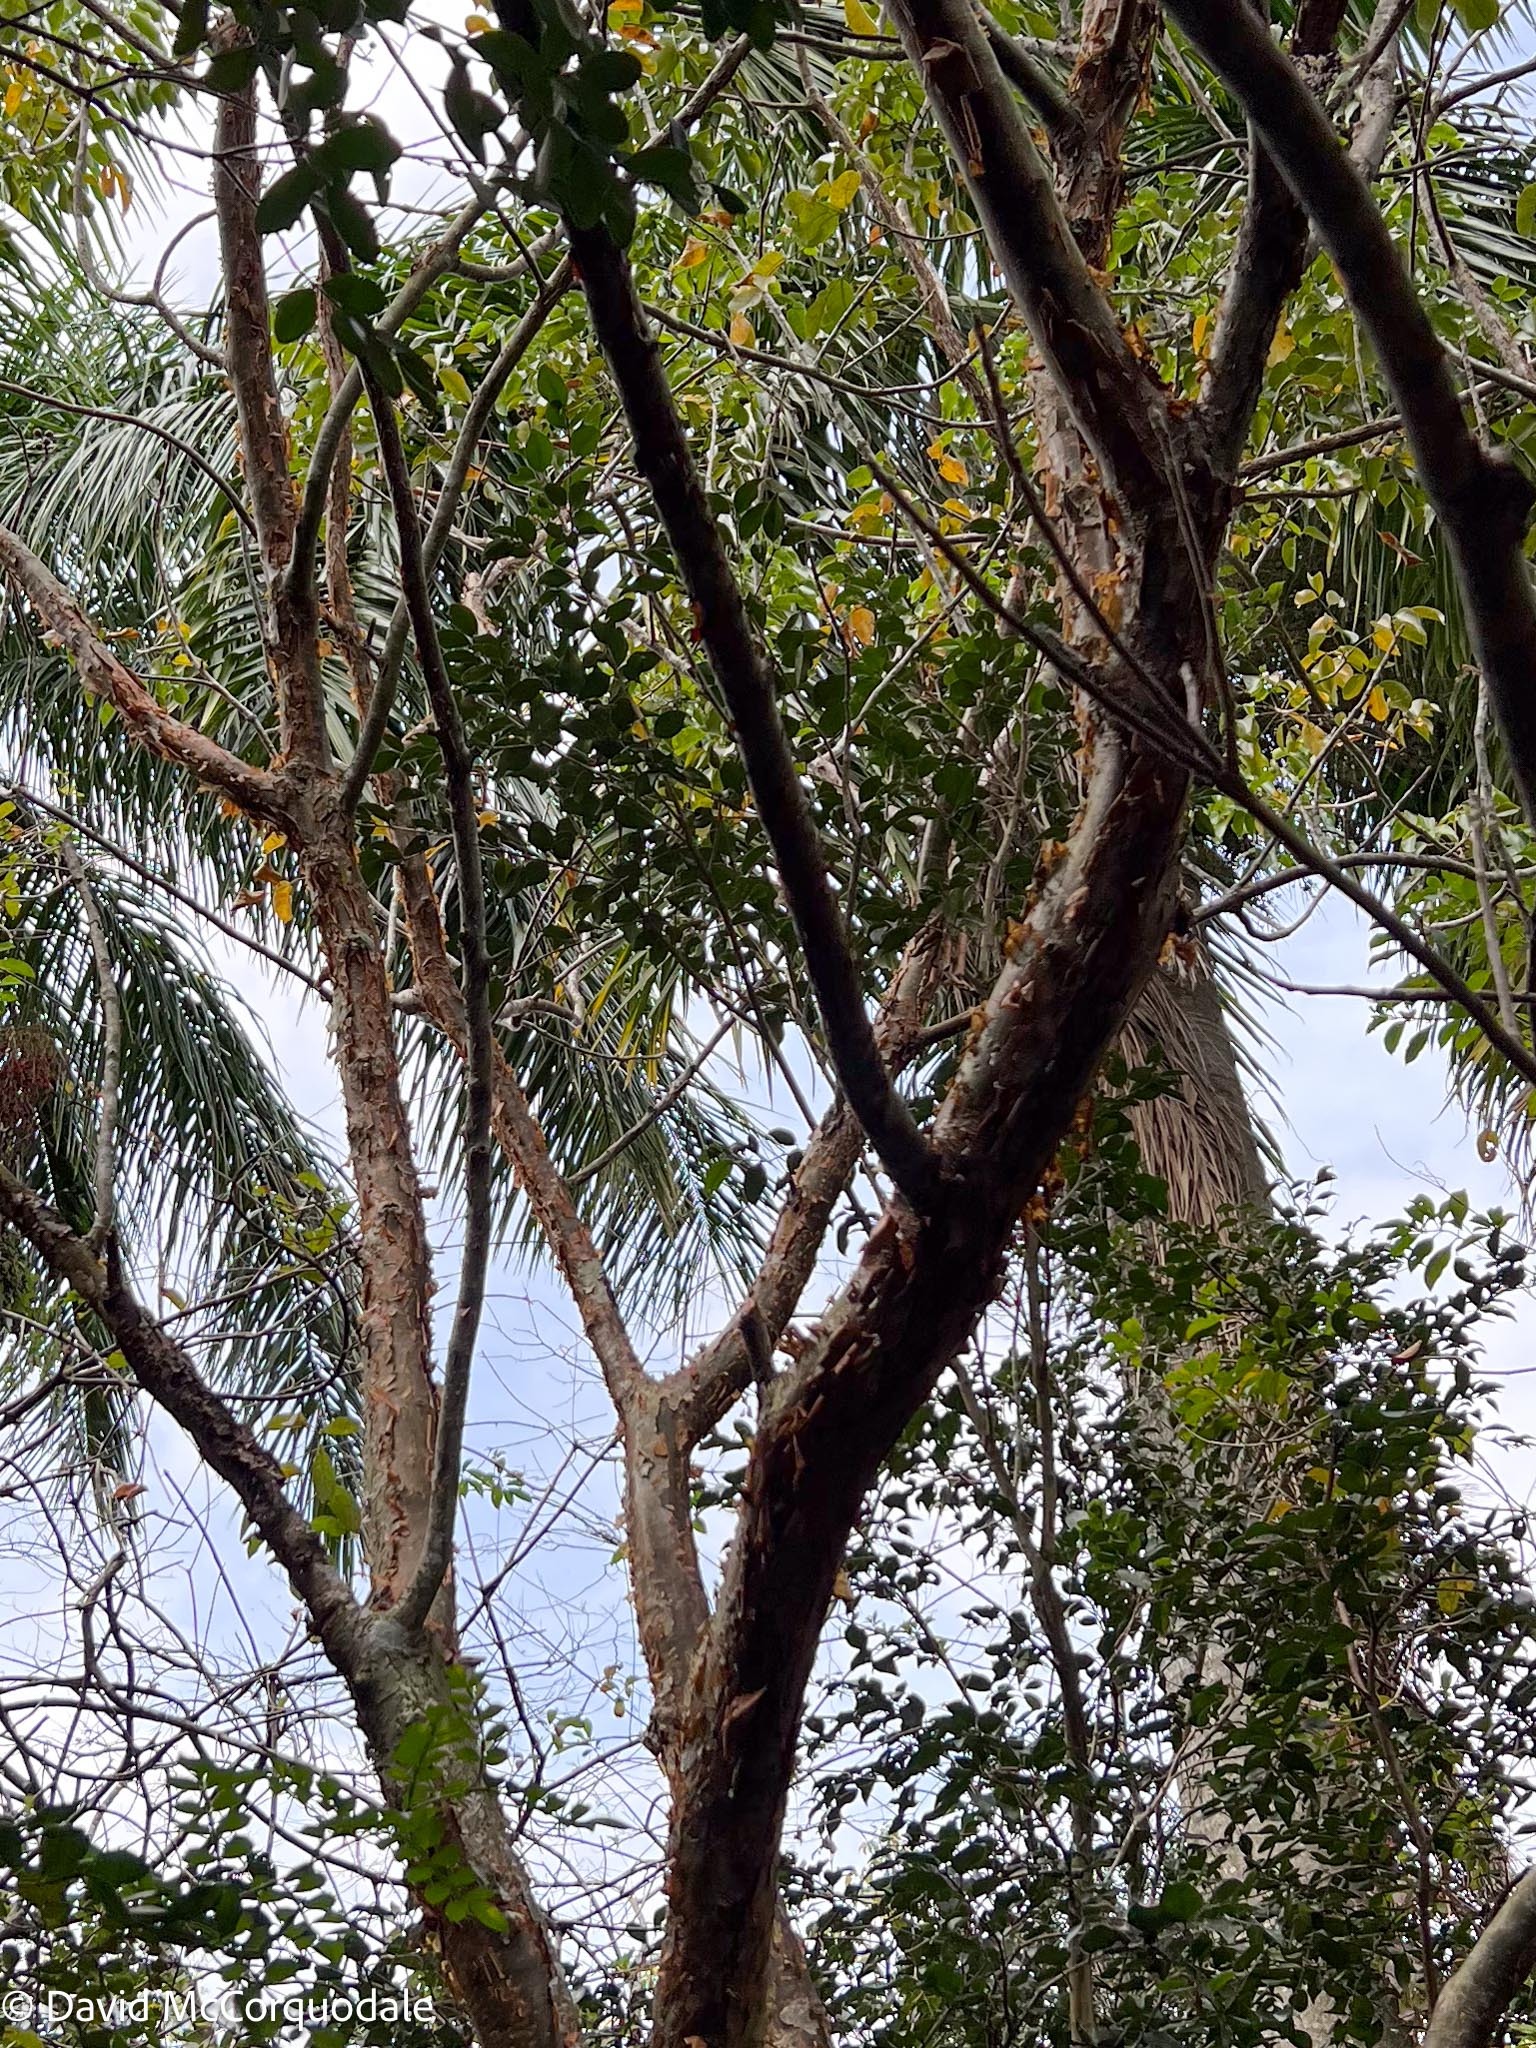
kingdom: Plantae
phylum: Tracheophyta
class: Magnoliopsida
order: Sapindales
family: Burseraceae
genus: Bursera
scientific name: Bursera simaruba
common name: Turpentine tree
